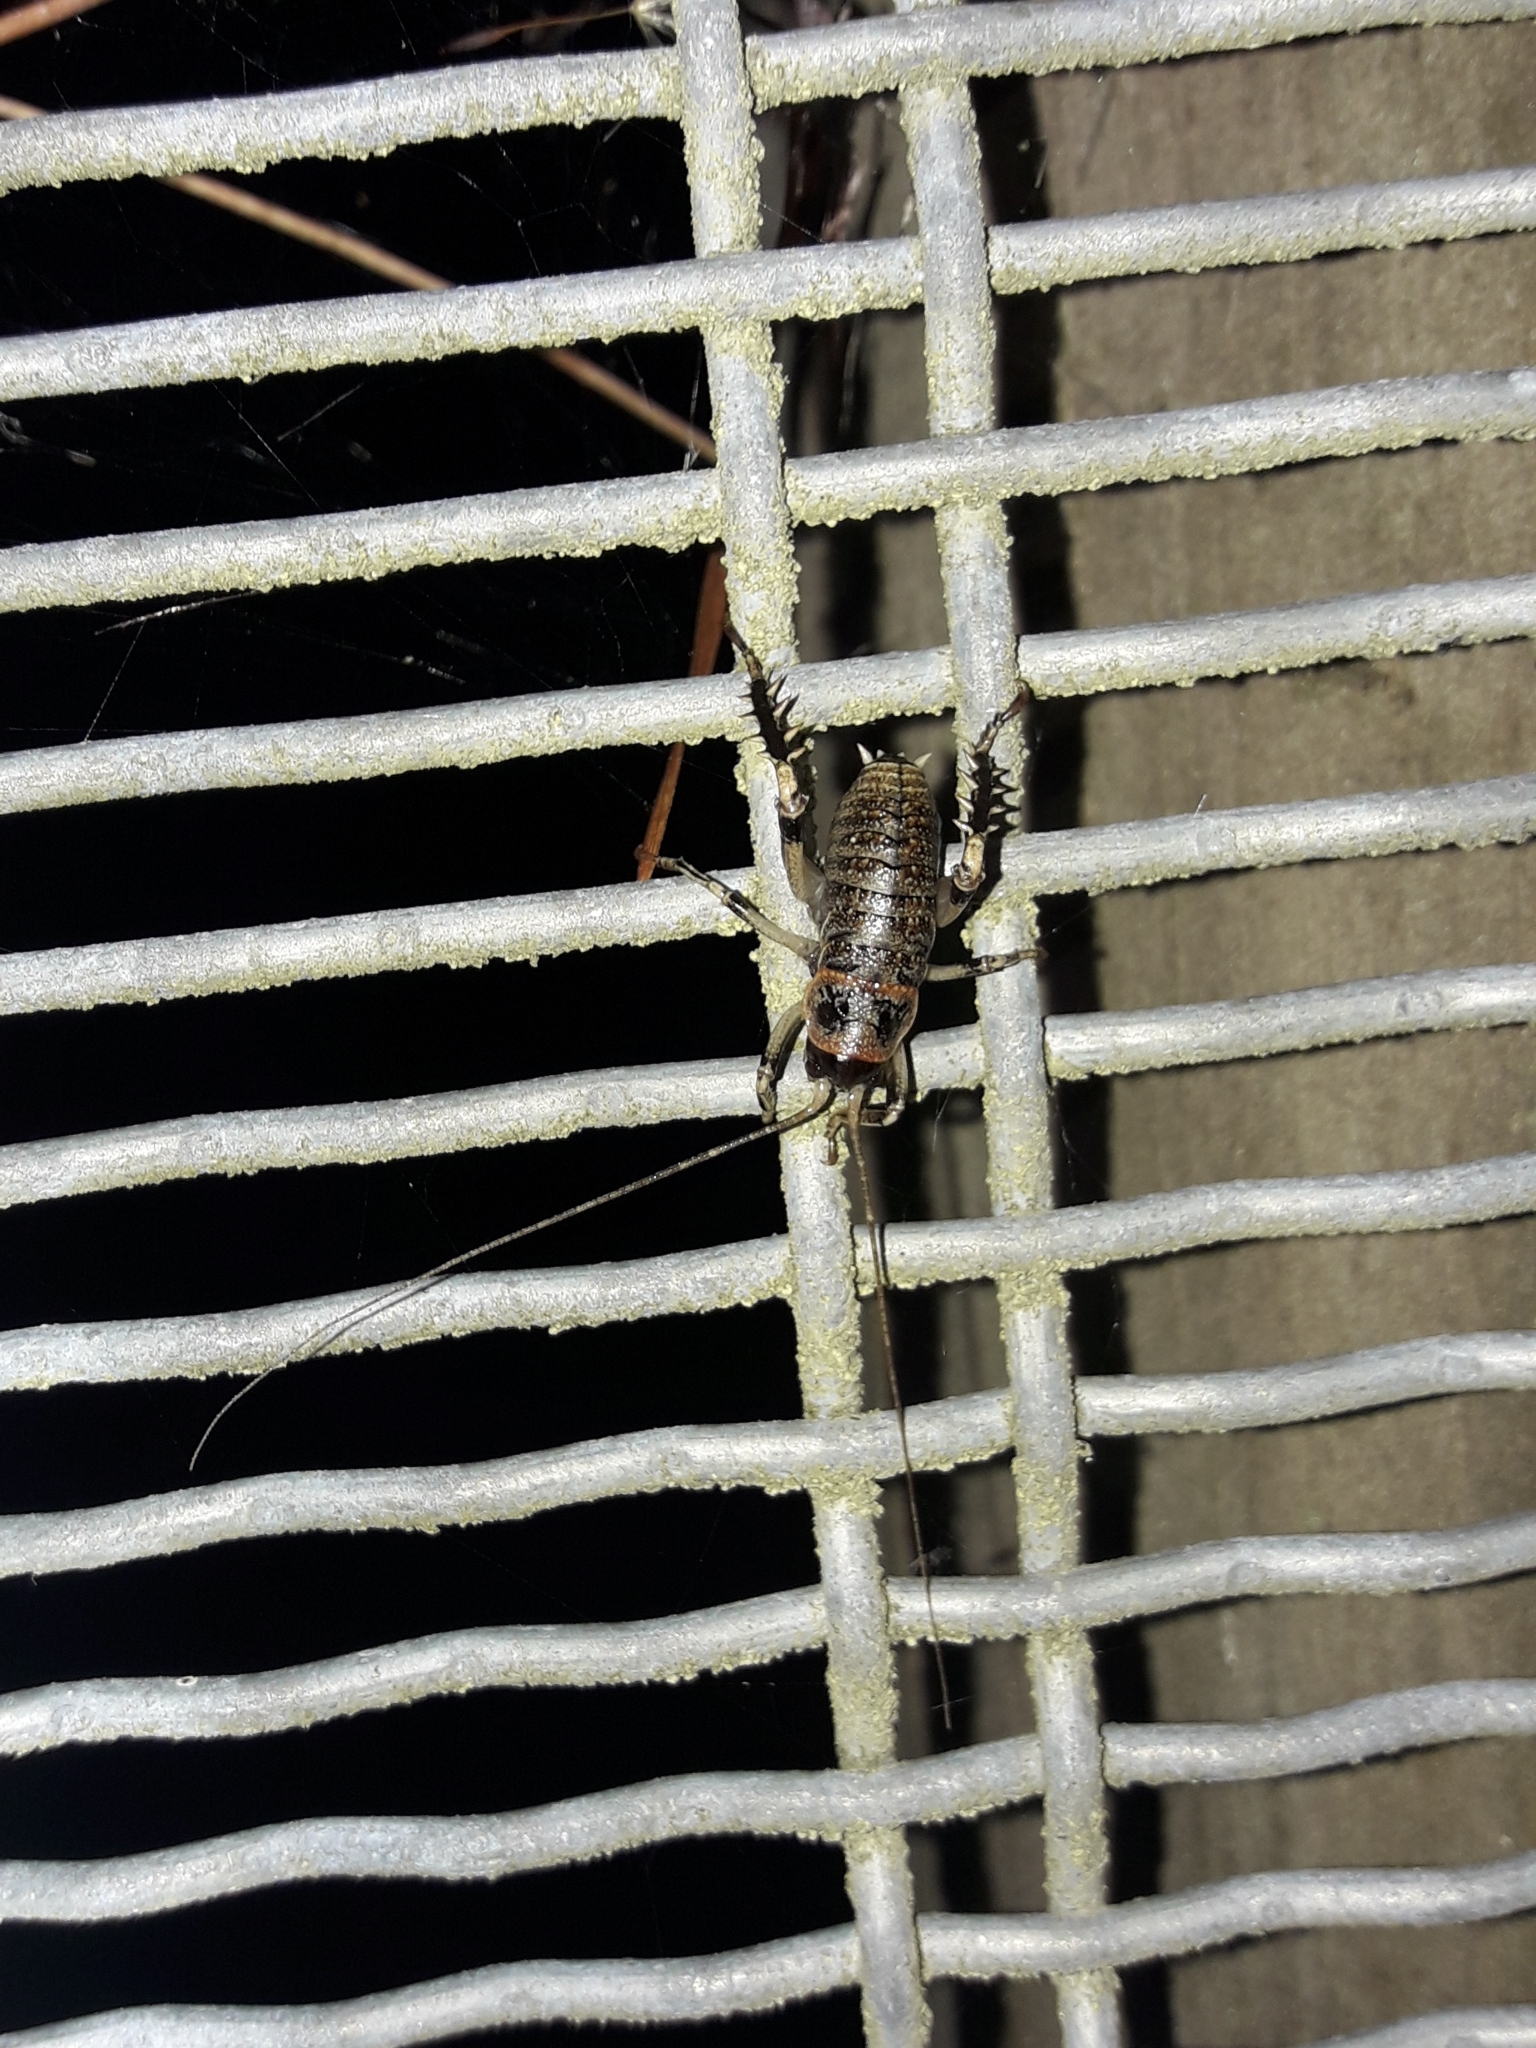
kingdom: Animalia
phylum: Arthropoda
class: Insecta
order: Orthoptera
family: Anostostomatidae
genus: Deinacrida
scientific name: Deinacrida rugosa
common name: Stephens island weta
